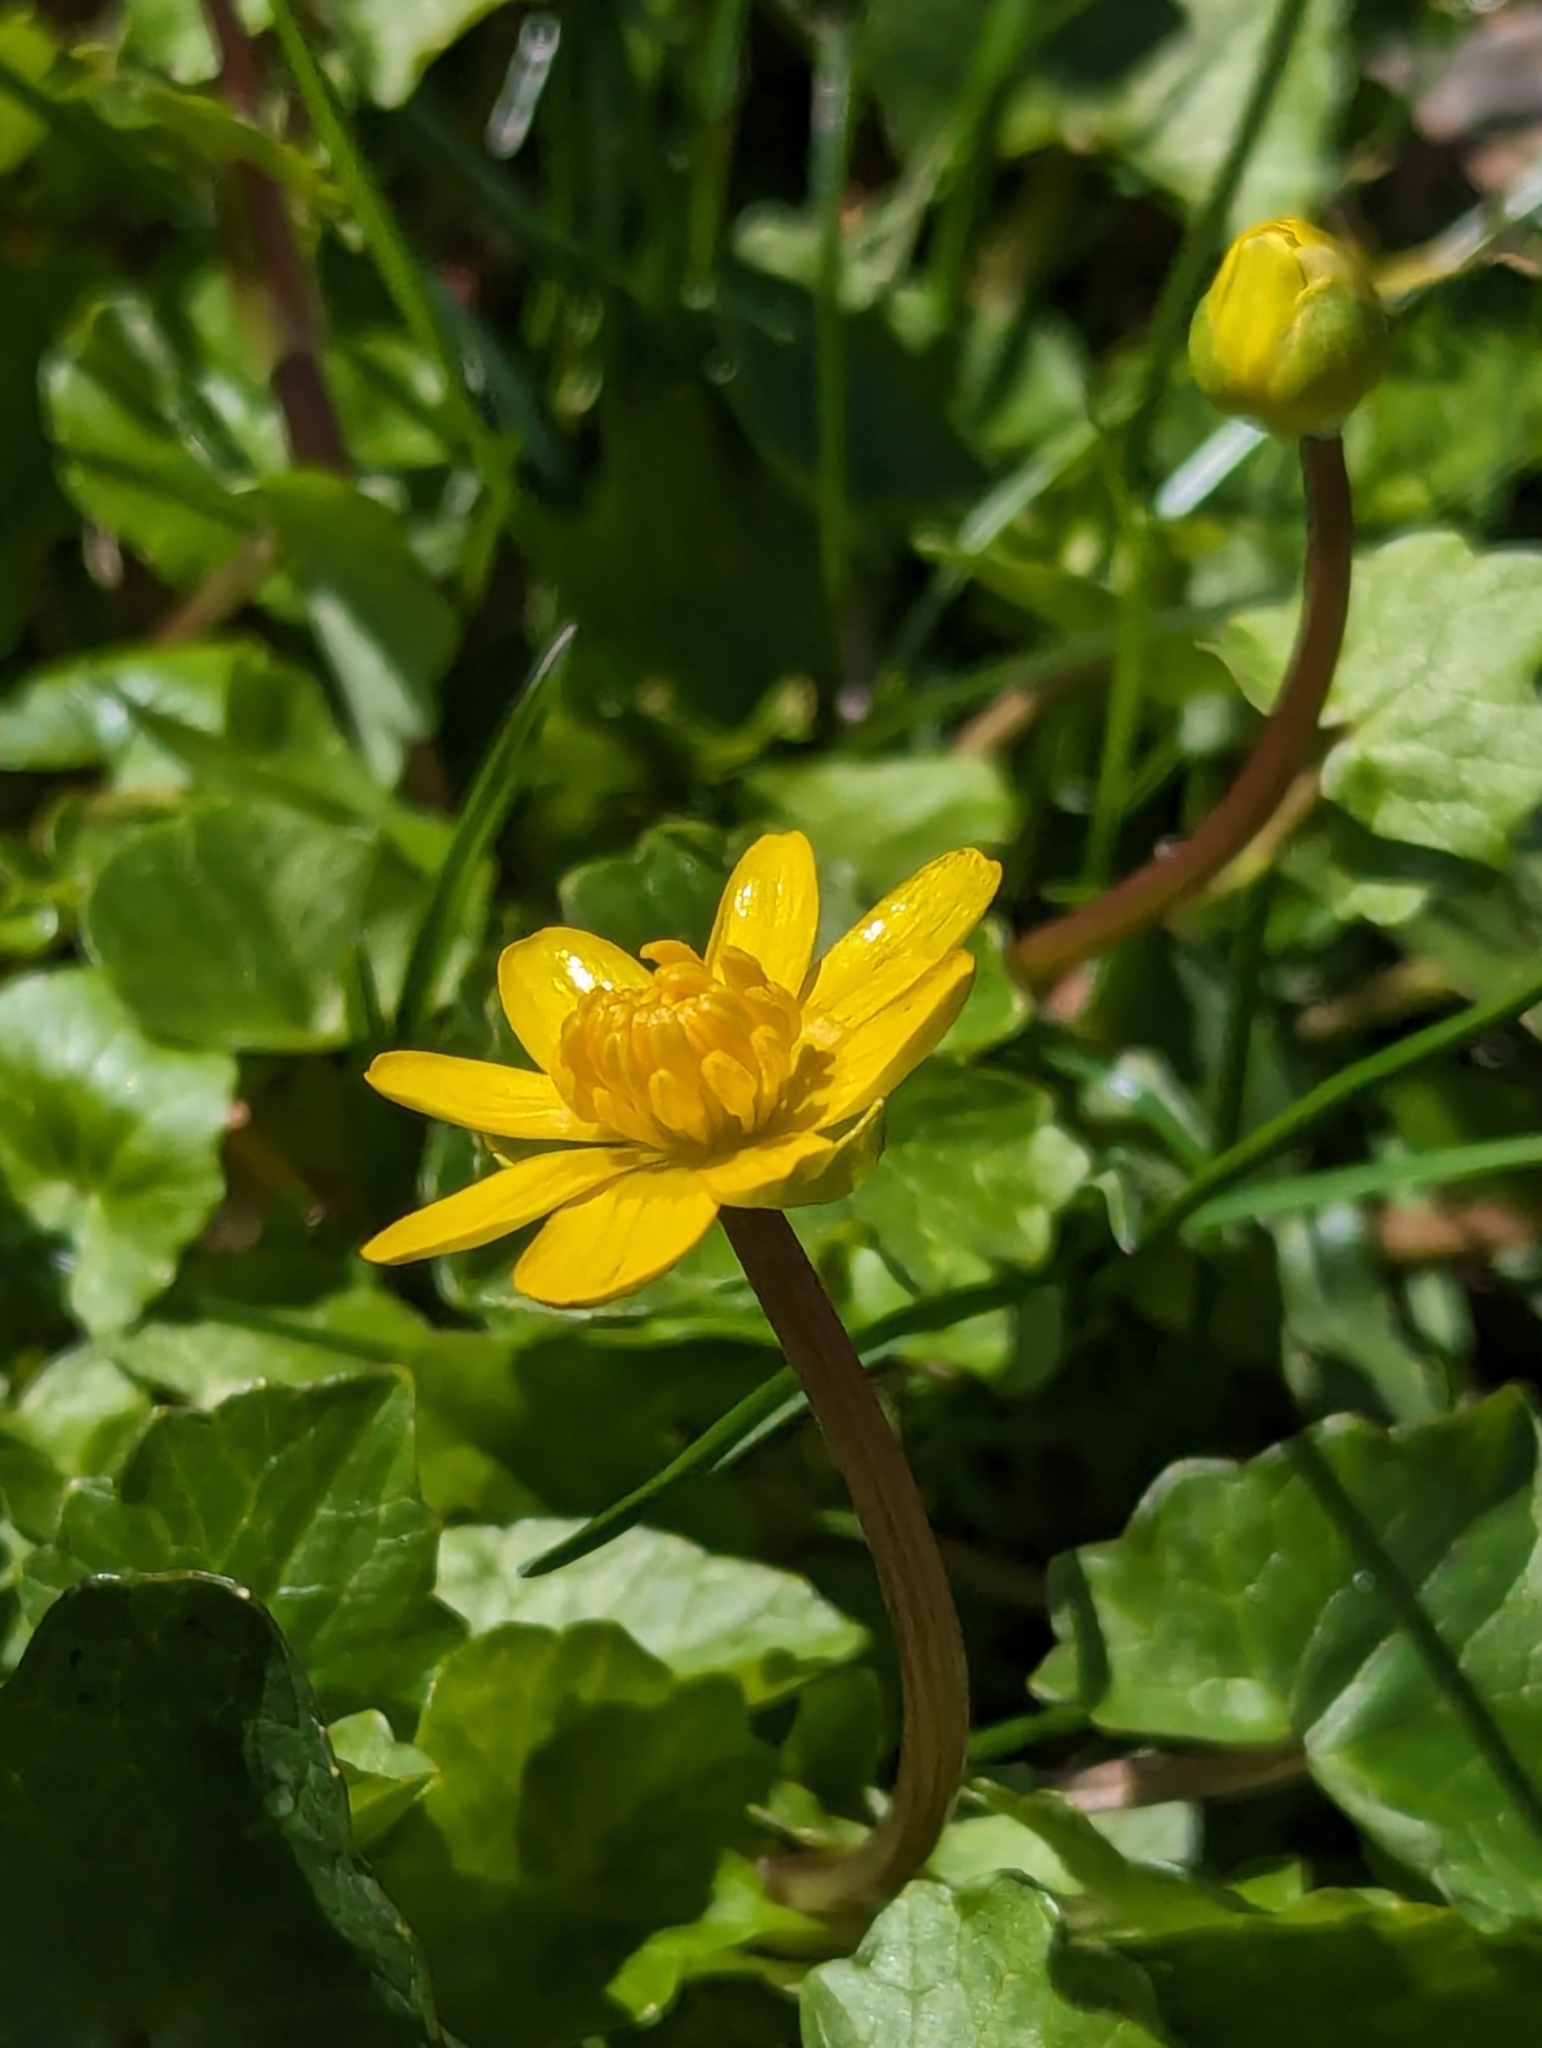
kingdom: Plantae
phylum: Tracheophyta
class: Magnoliopsida
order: Ranunculales
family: Ranunculaceae
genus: Ficaria
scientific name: Ficaria verna
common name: Lesser celandine
